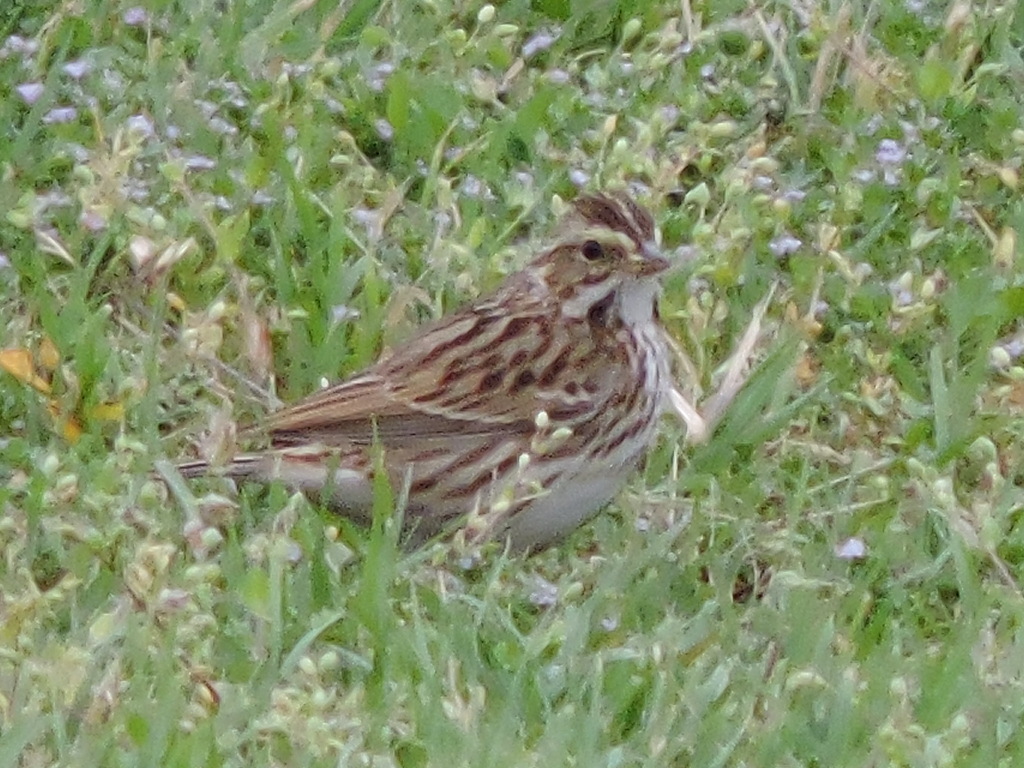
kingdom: Animalia
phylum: Chordata
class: Aves
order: Passeriformes
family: Passerellidae
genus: Passerculus
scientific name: Passerculus sandwichensis
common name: Savannah sparrow
